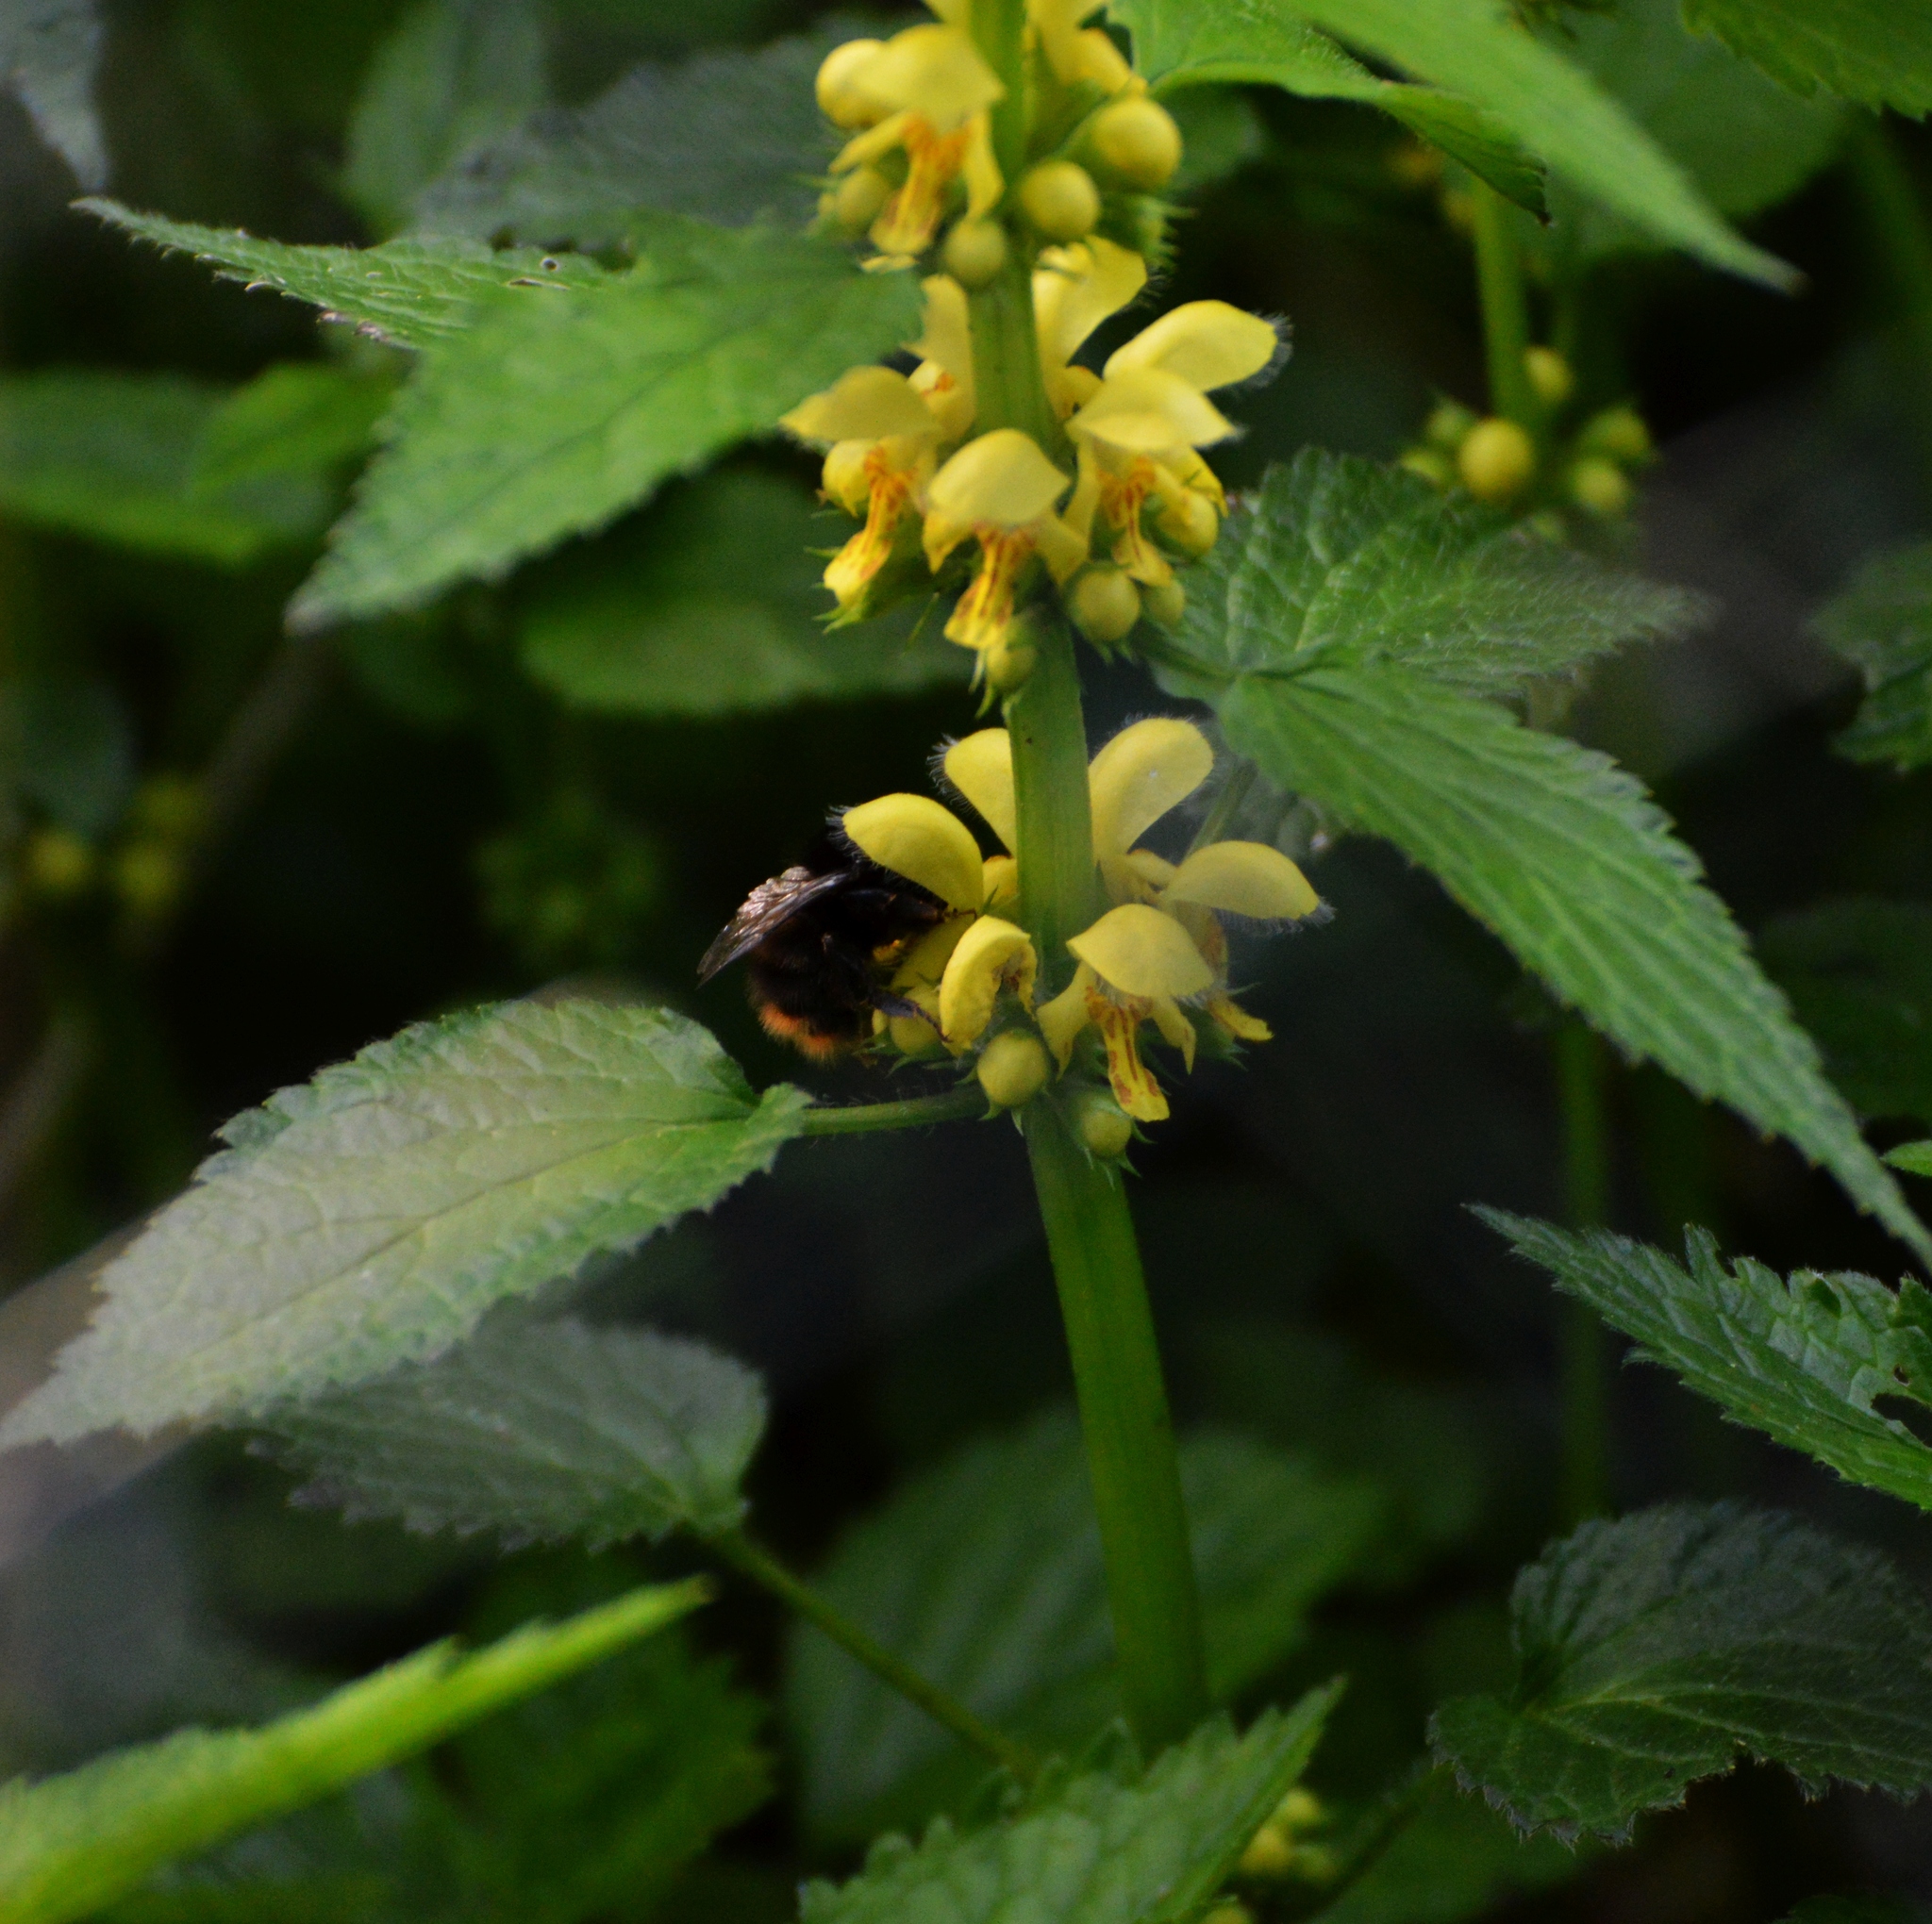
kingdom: Animalia
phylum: Arthropoda
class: Insecta
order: Hymenoptera
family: Apidae
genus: Bombus
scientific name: Bombus pratorum
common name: Early humble-bee
